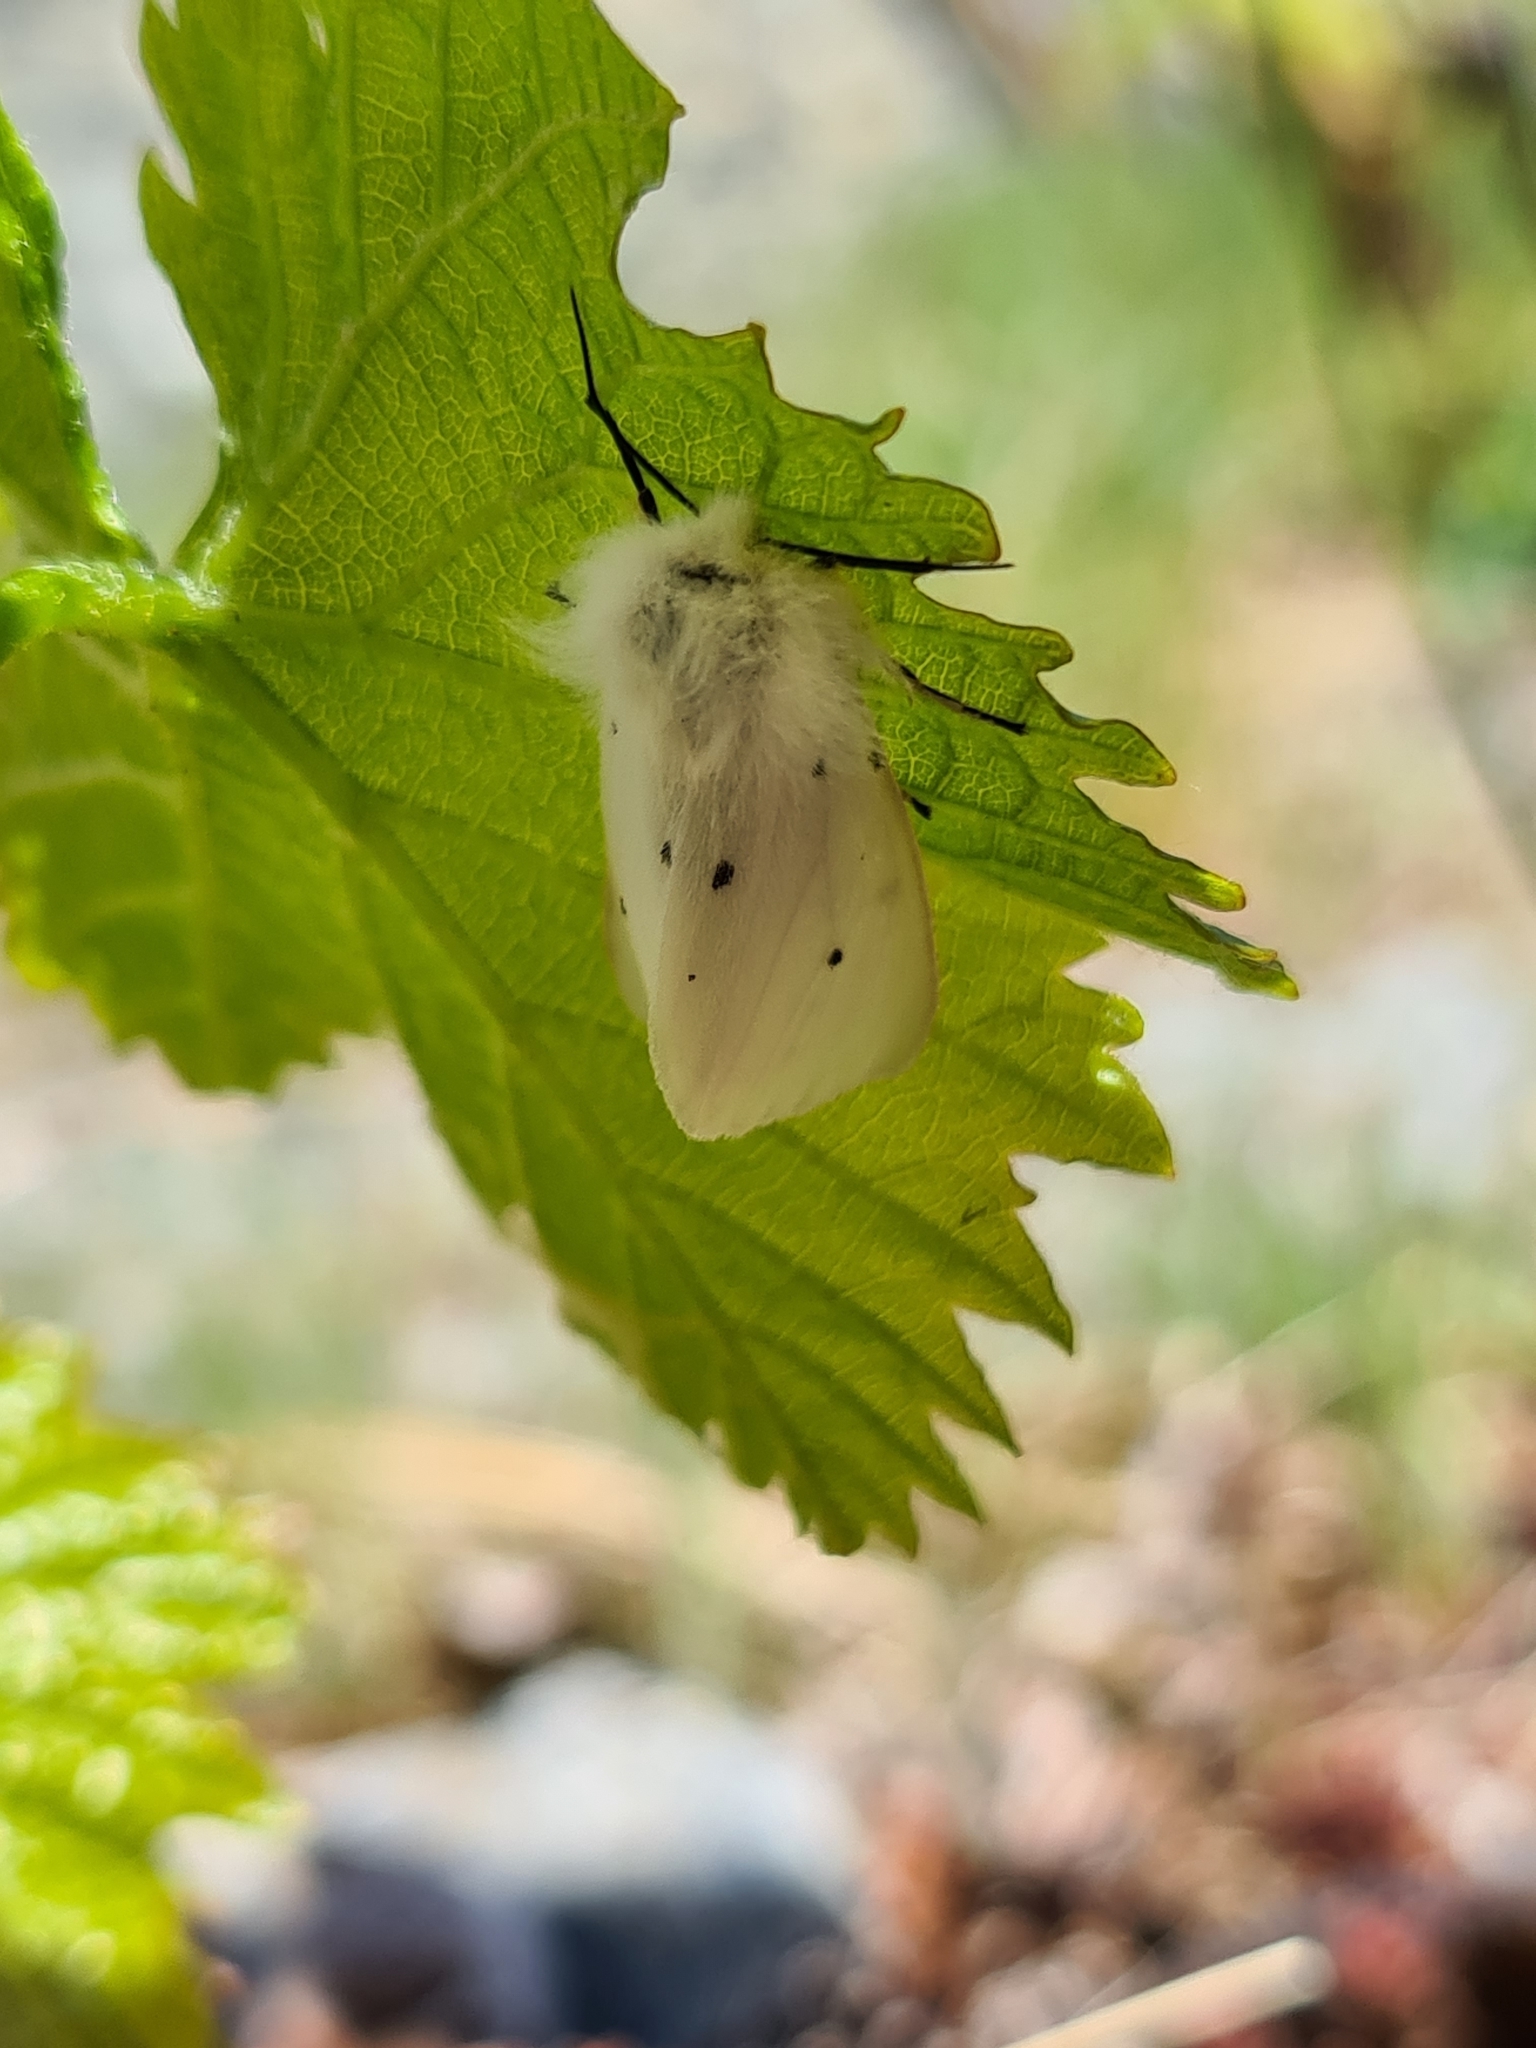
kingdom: Animalia
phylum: Arthropoda
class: Insecta
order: Lepidoptera
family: Erebidae
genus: Diaphora
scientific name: Diaphora mendica
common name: Muslin moth
